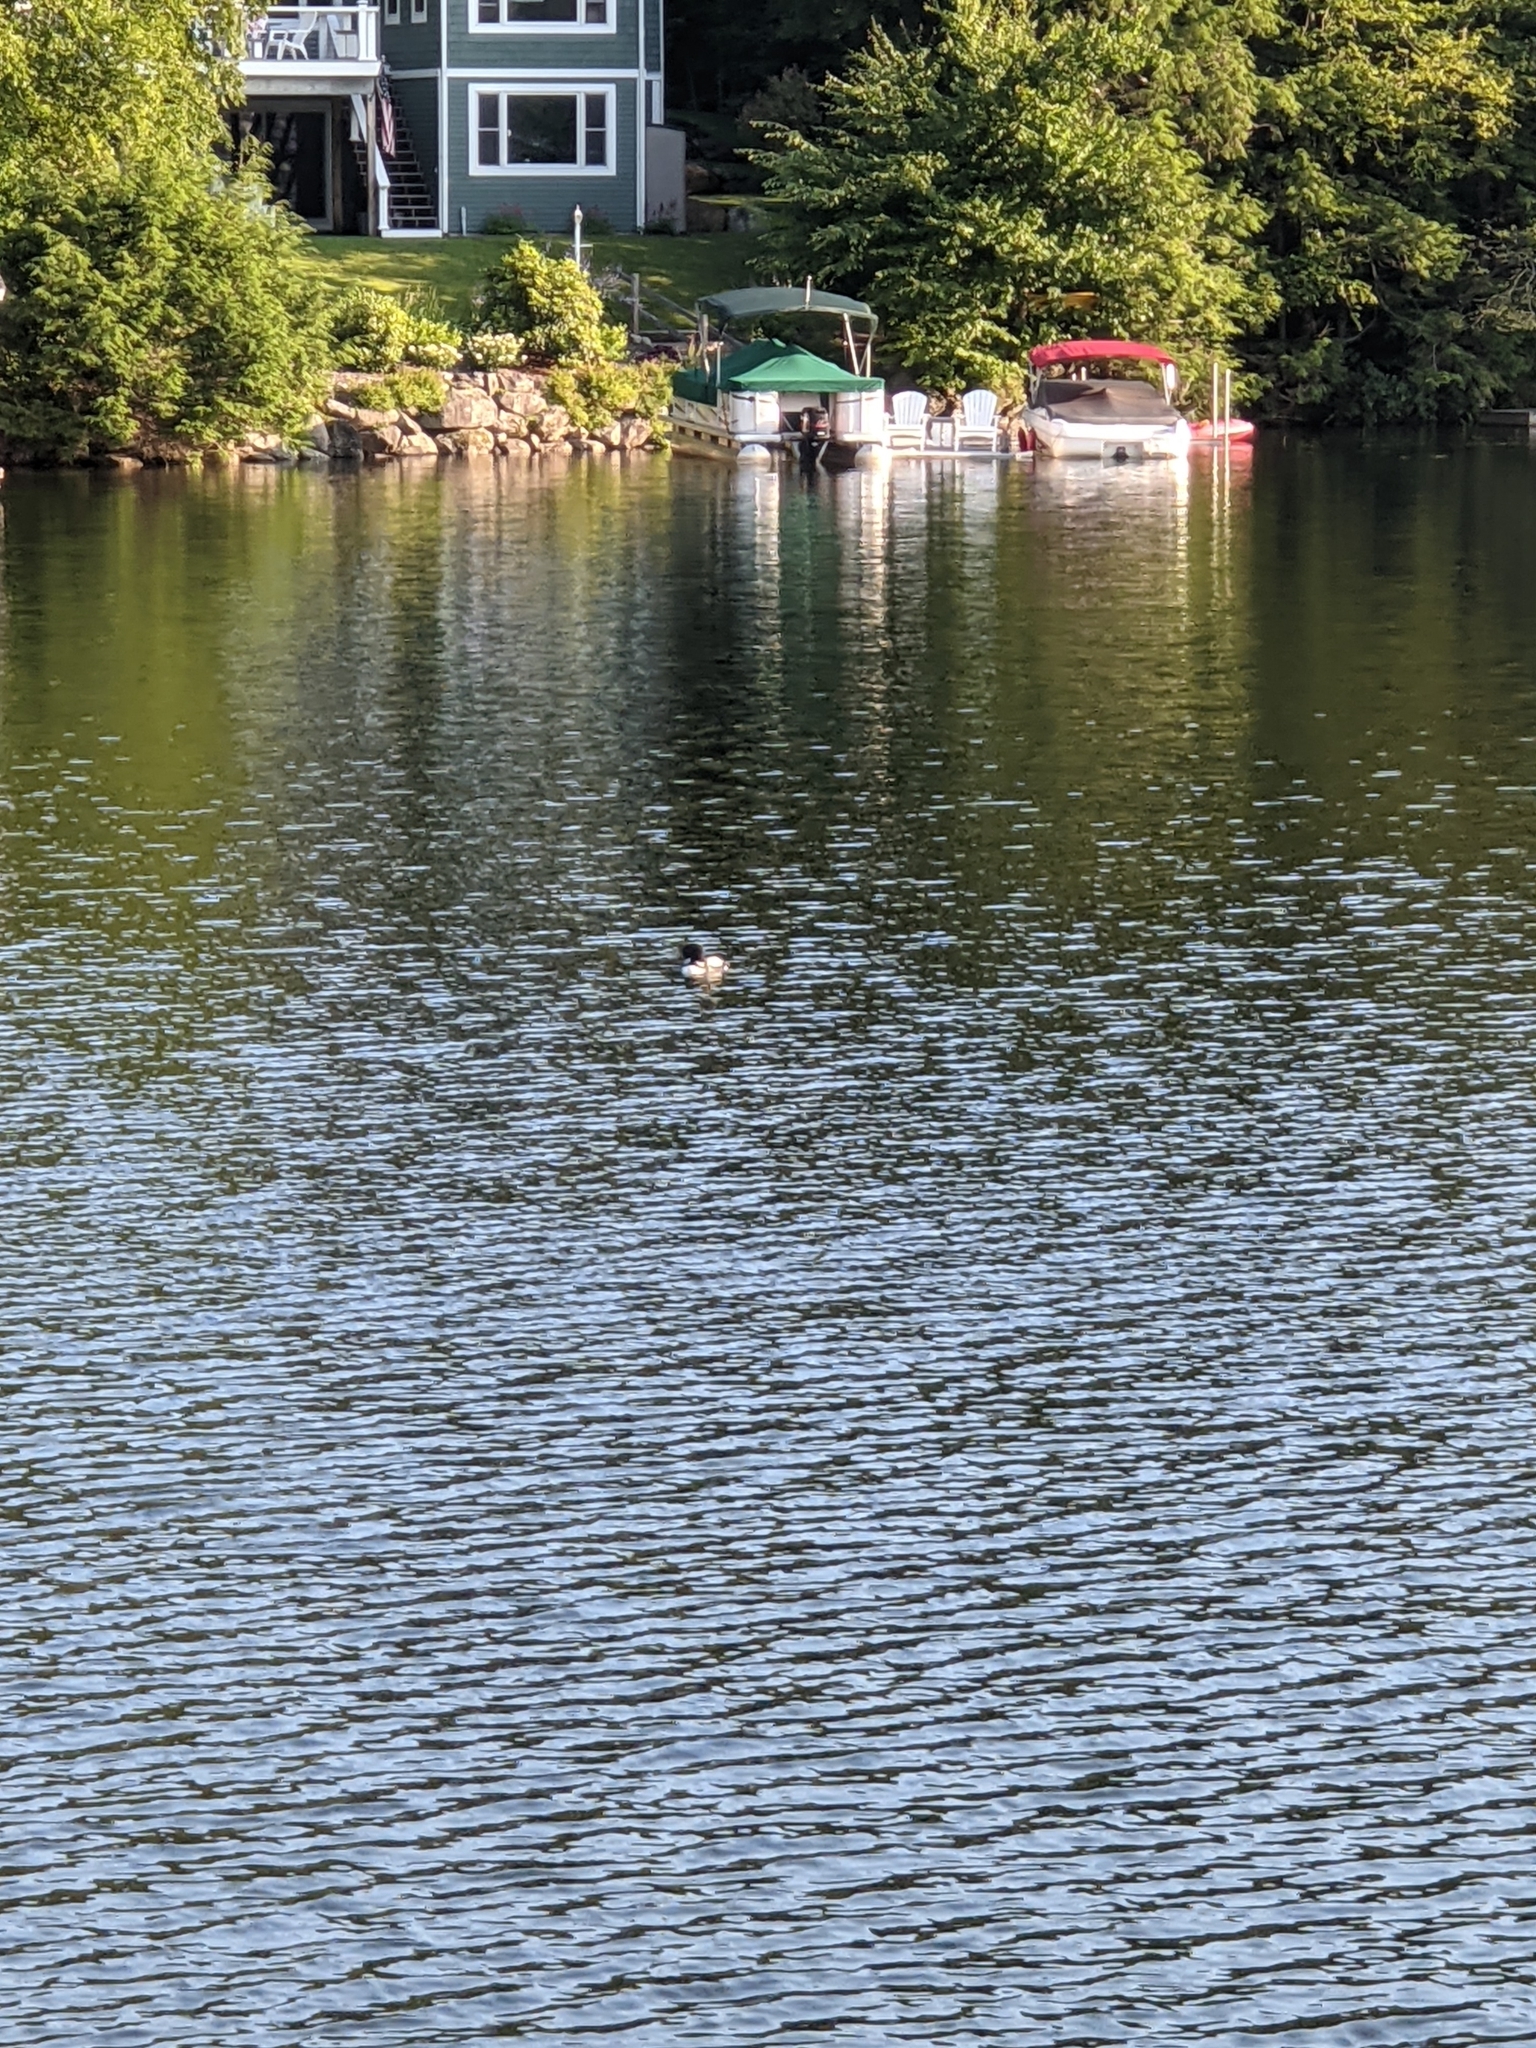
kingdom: Animalia
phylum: Chordata
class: Aves
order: Gaviiformes
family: Gaviidae
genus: Gavia
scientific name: Gavia immer
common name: Common loon
